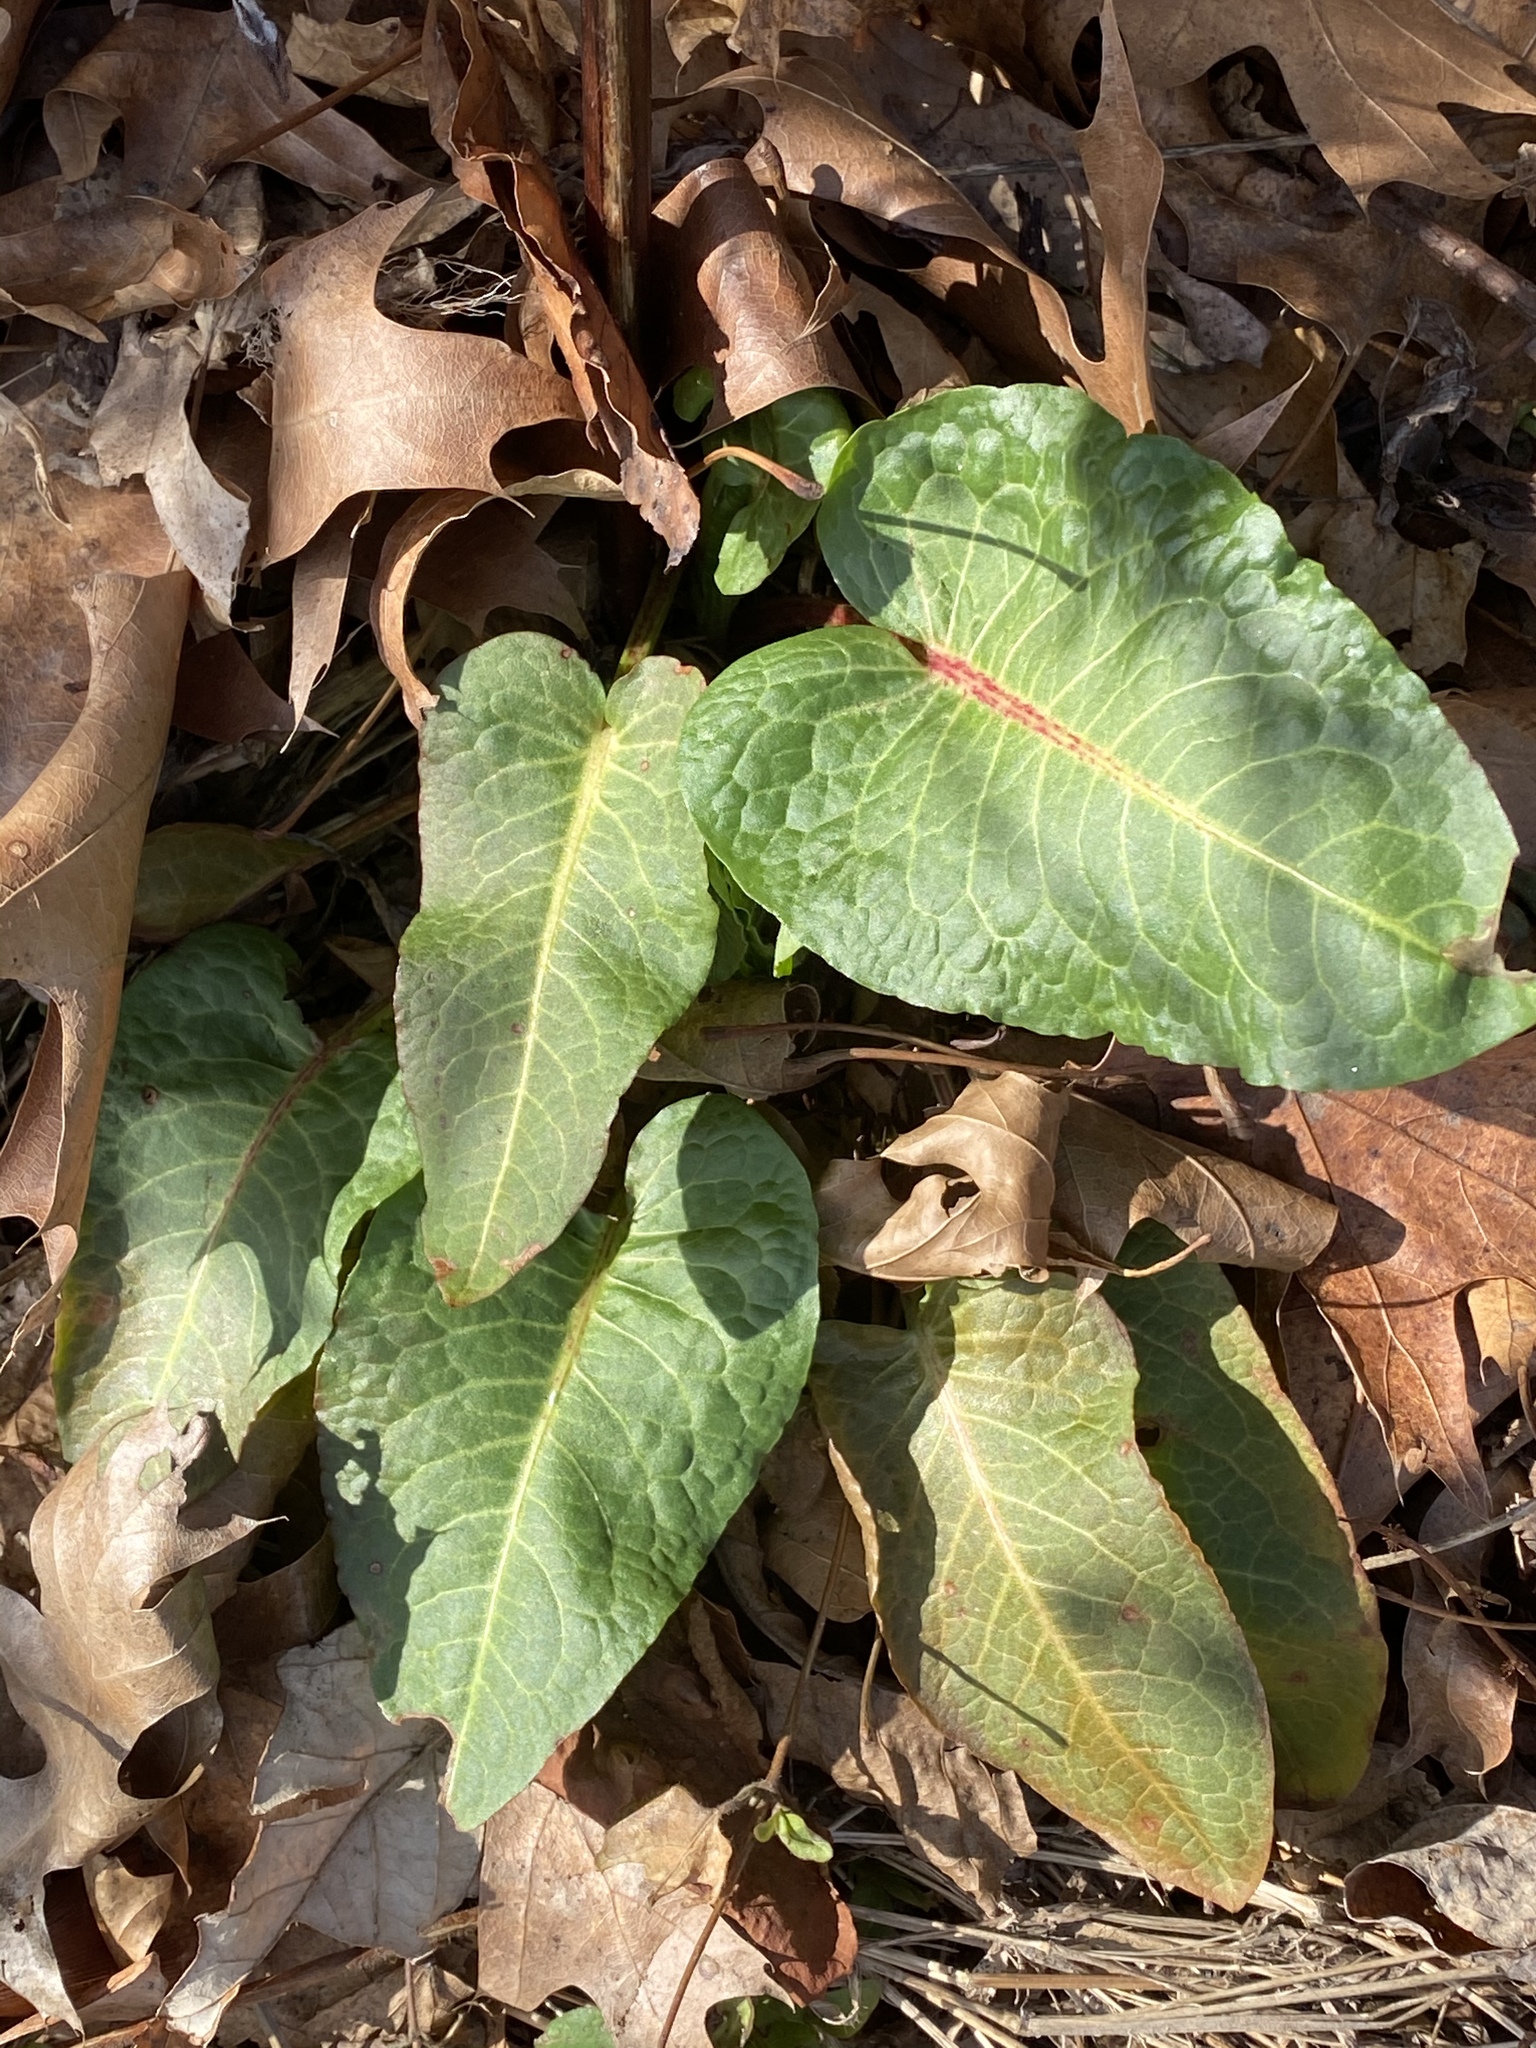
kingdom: Plantae
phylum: Tracheophyta
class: Magnoliopsida
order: Caryophyllales
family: Polygonaceae
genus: Rumex
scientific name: Rumex obtusifolius
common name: Bitter dock
